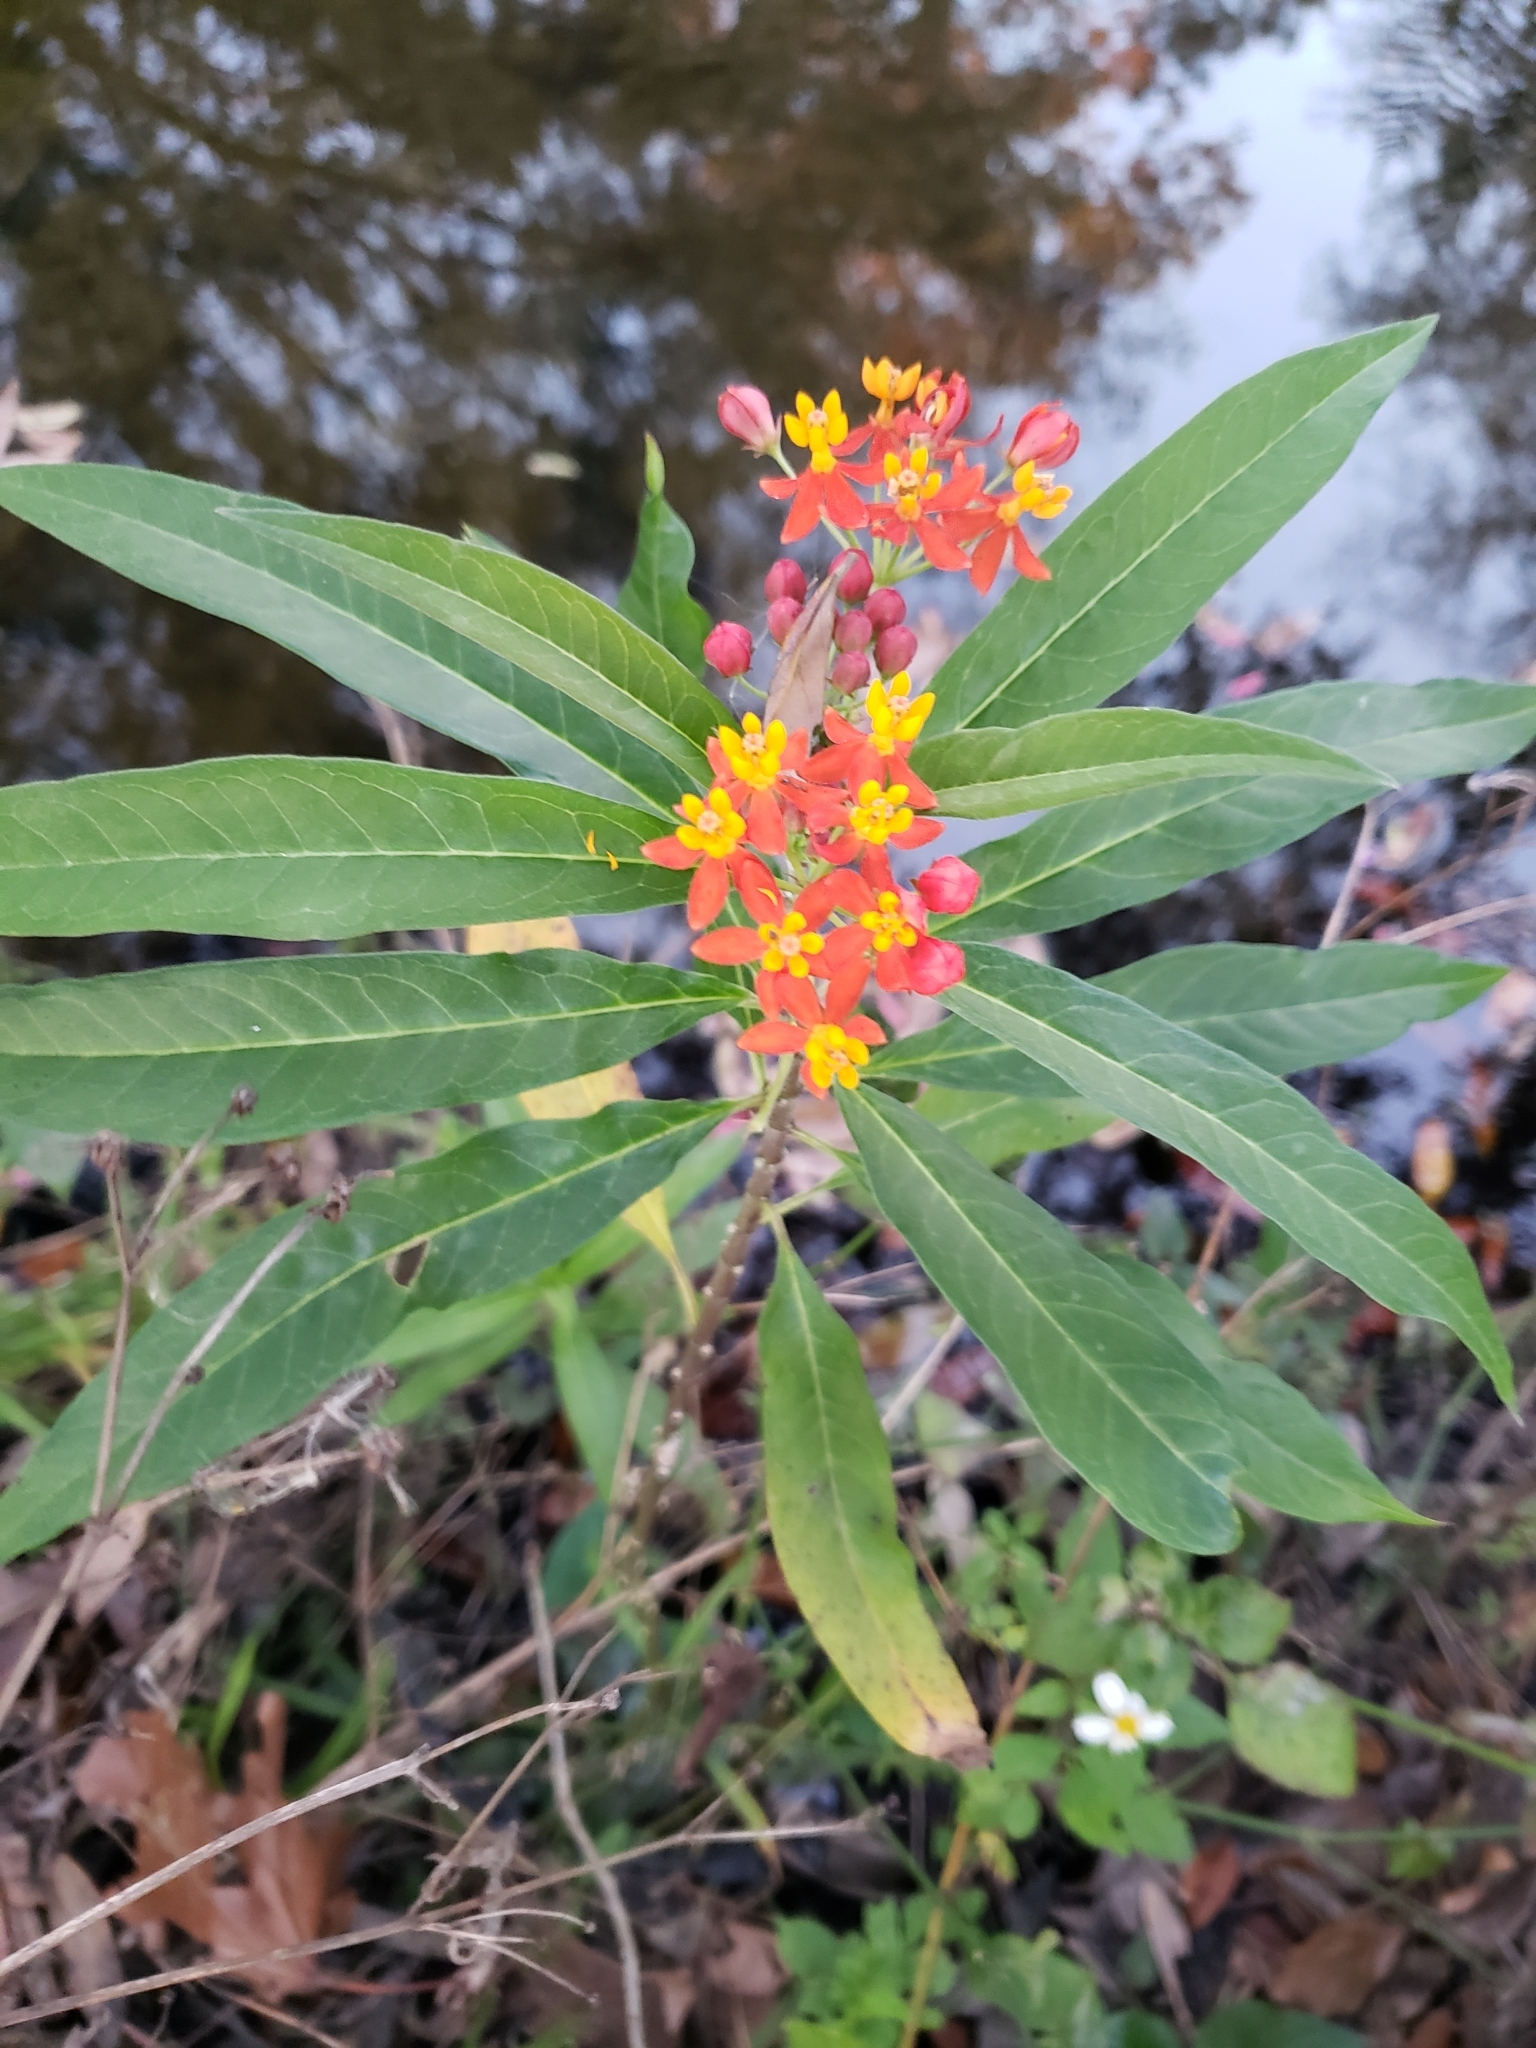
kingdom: Plantae
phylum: Tracheophyta
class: Magnoliopsida
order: Gentianales
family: Apocynaceae
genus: Asclepias
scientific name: Asclepias curassavica
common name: Bloodflower
